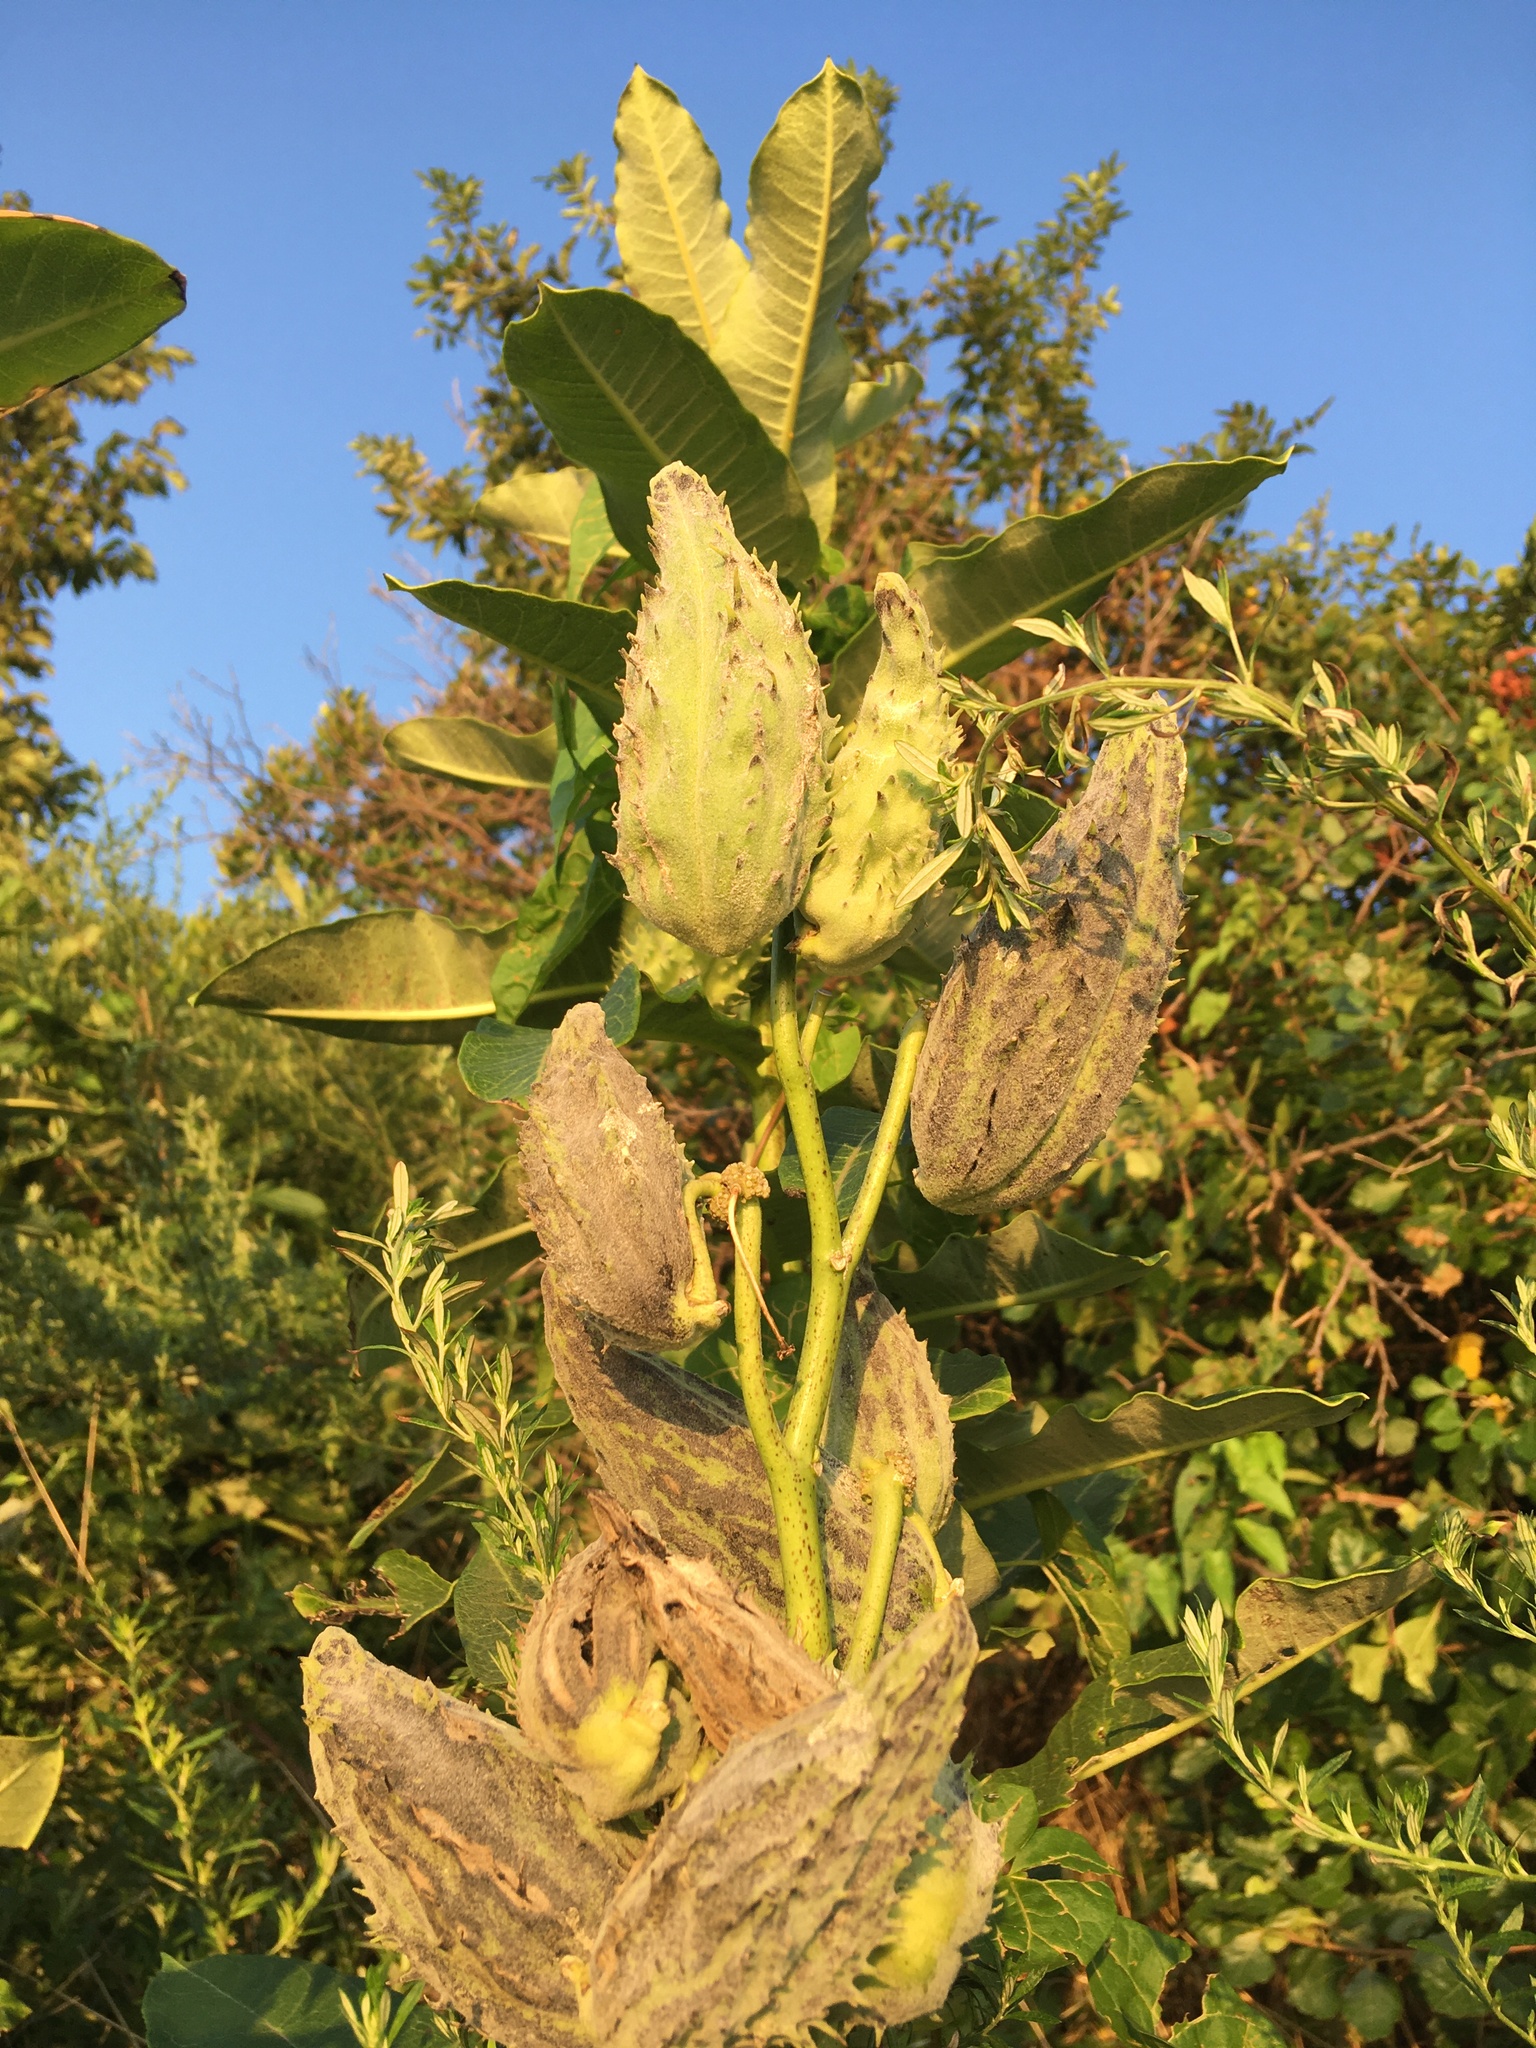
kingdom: Plantae
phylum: Tracheophyta
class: Magnoliopsida
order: Gentianales
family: Apocynaceae
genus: Asclepias
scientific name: Asclepias syriaca
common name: Common milkweed
